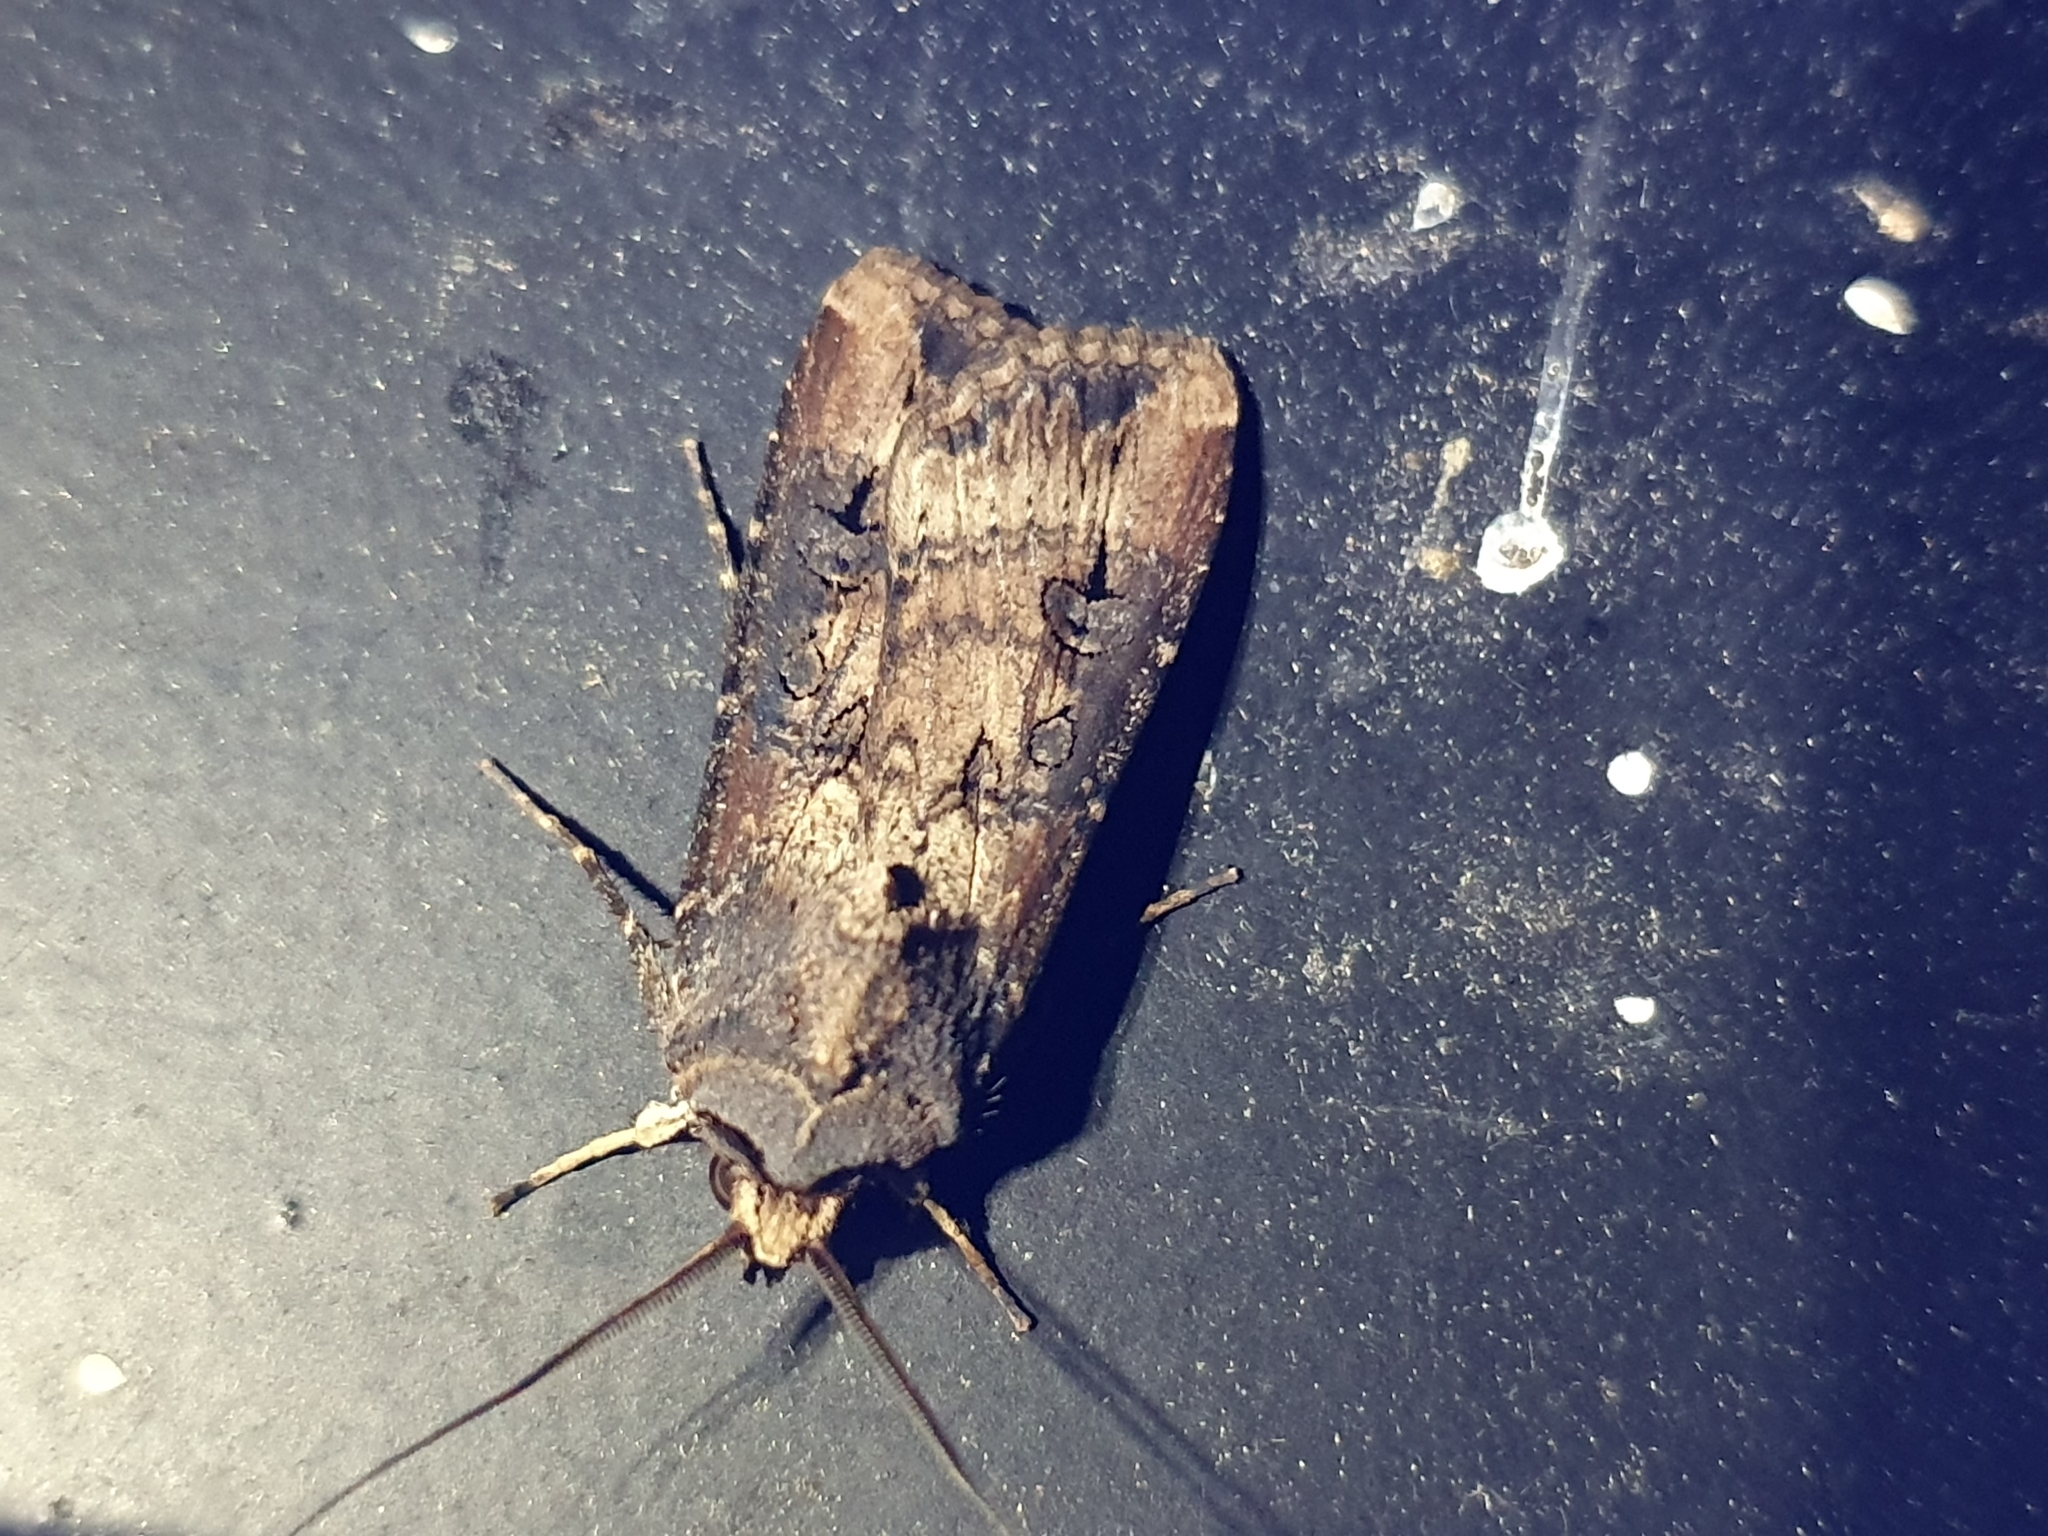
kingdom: Animalia
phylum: Arthropoda
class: Insecta
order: Lepidoptera
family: Noctuidae
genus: Agrotis
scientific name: Agrotis ipsilon
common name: Dark sword-grass
